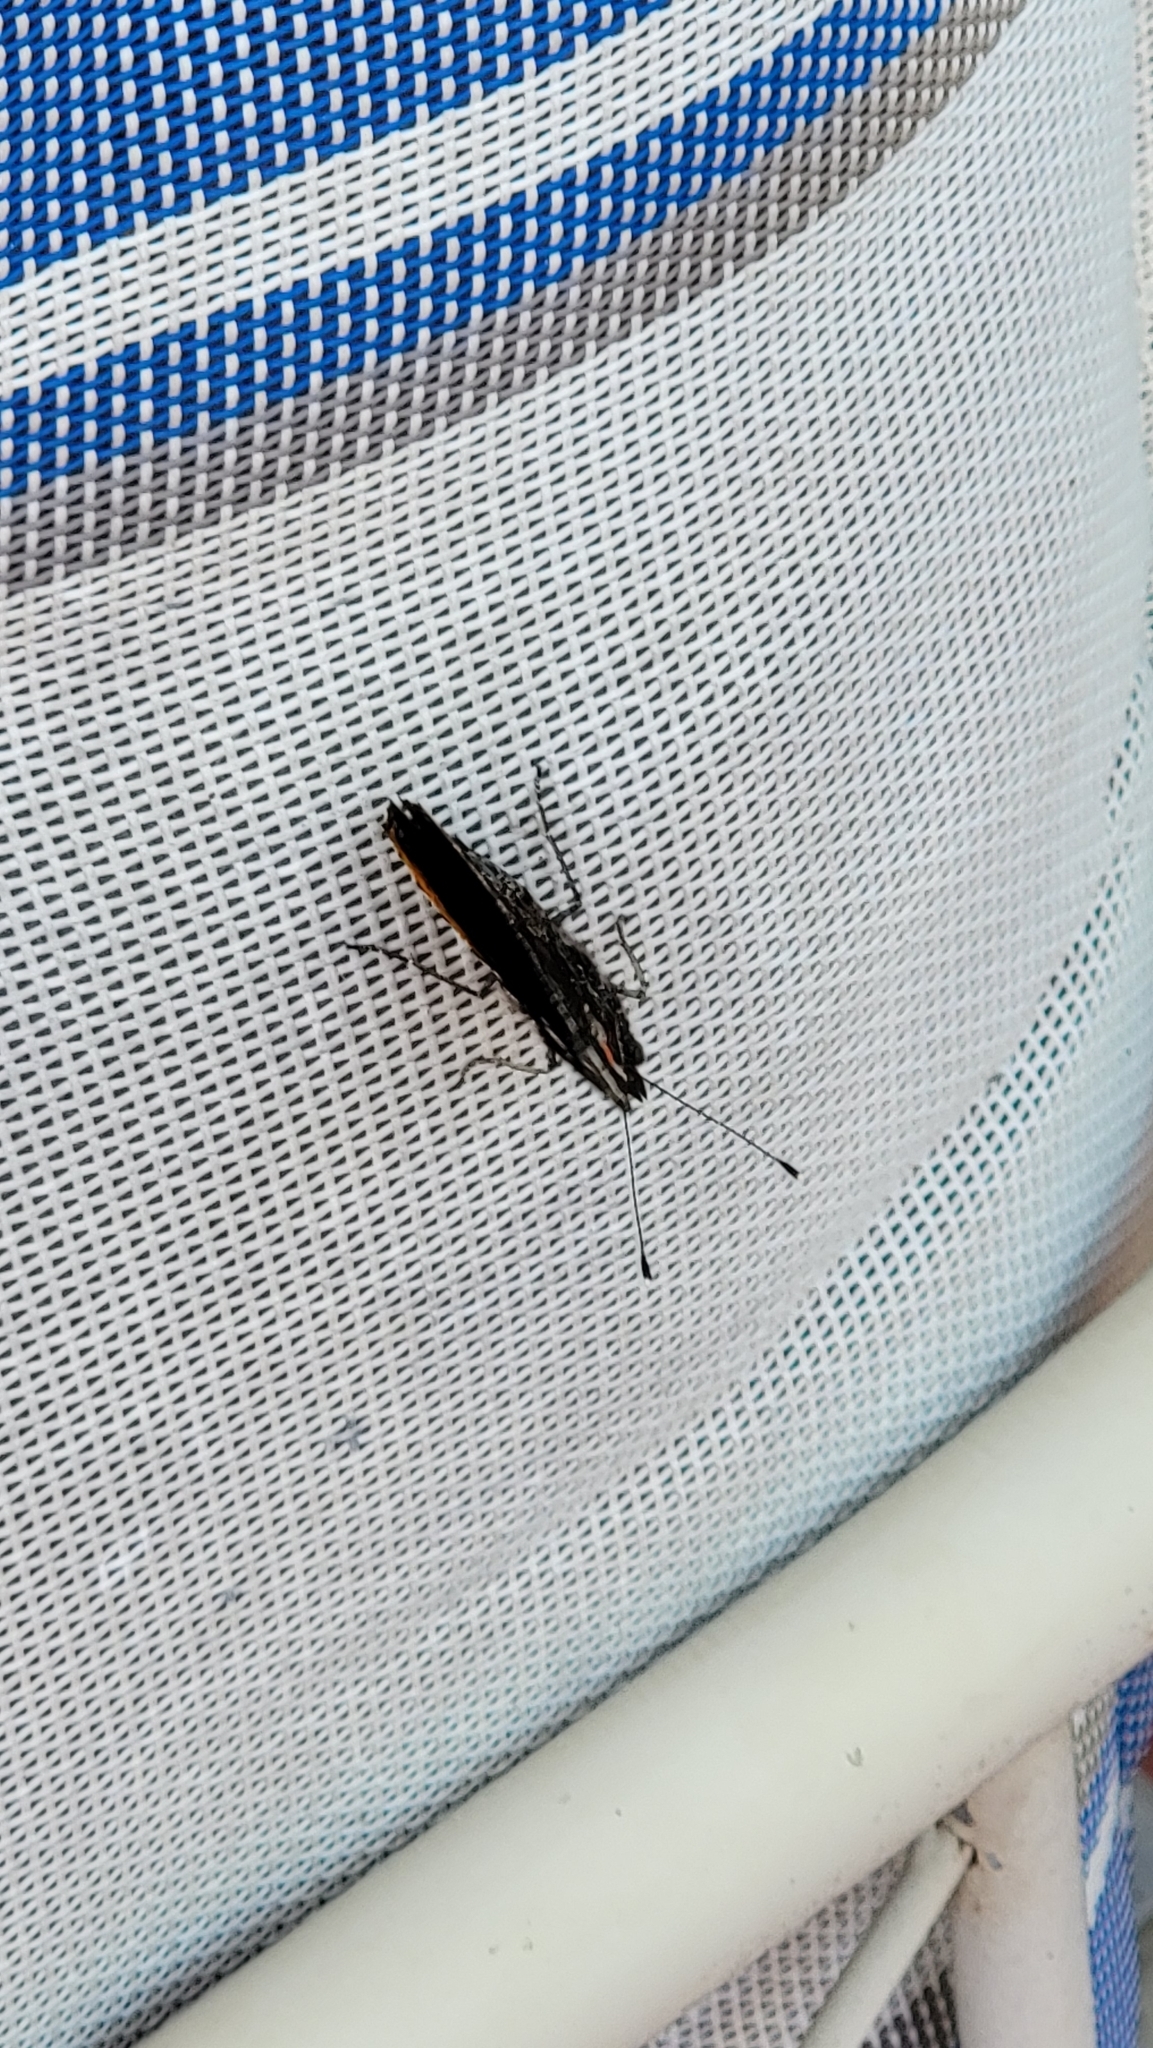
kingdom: Animalia
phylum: Arthropoda
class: Insecta
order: Lepidoptera
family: Nymphalidae
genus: Vanessa
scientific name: Vanessa atalanta
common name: Red admiral
